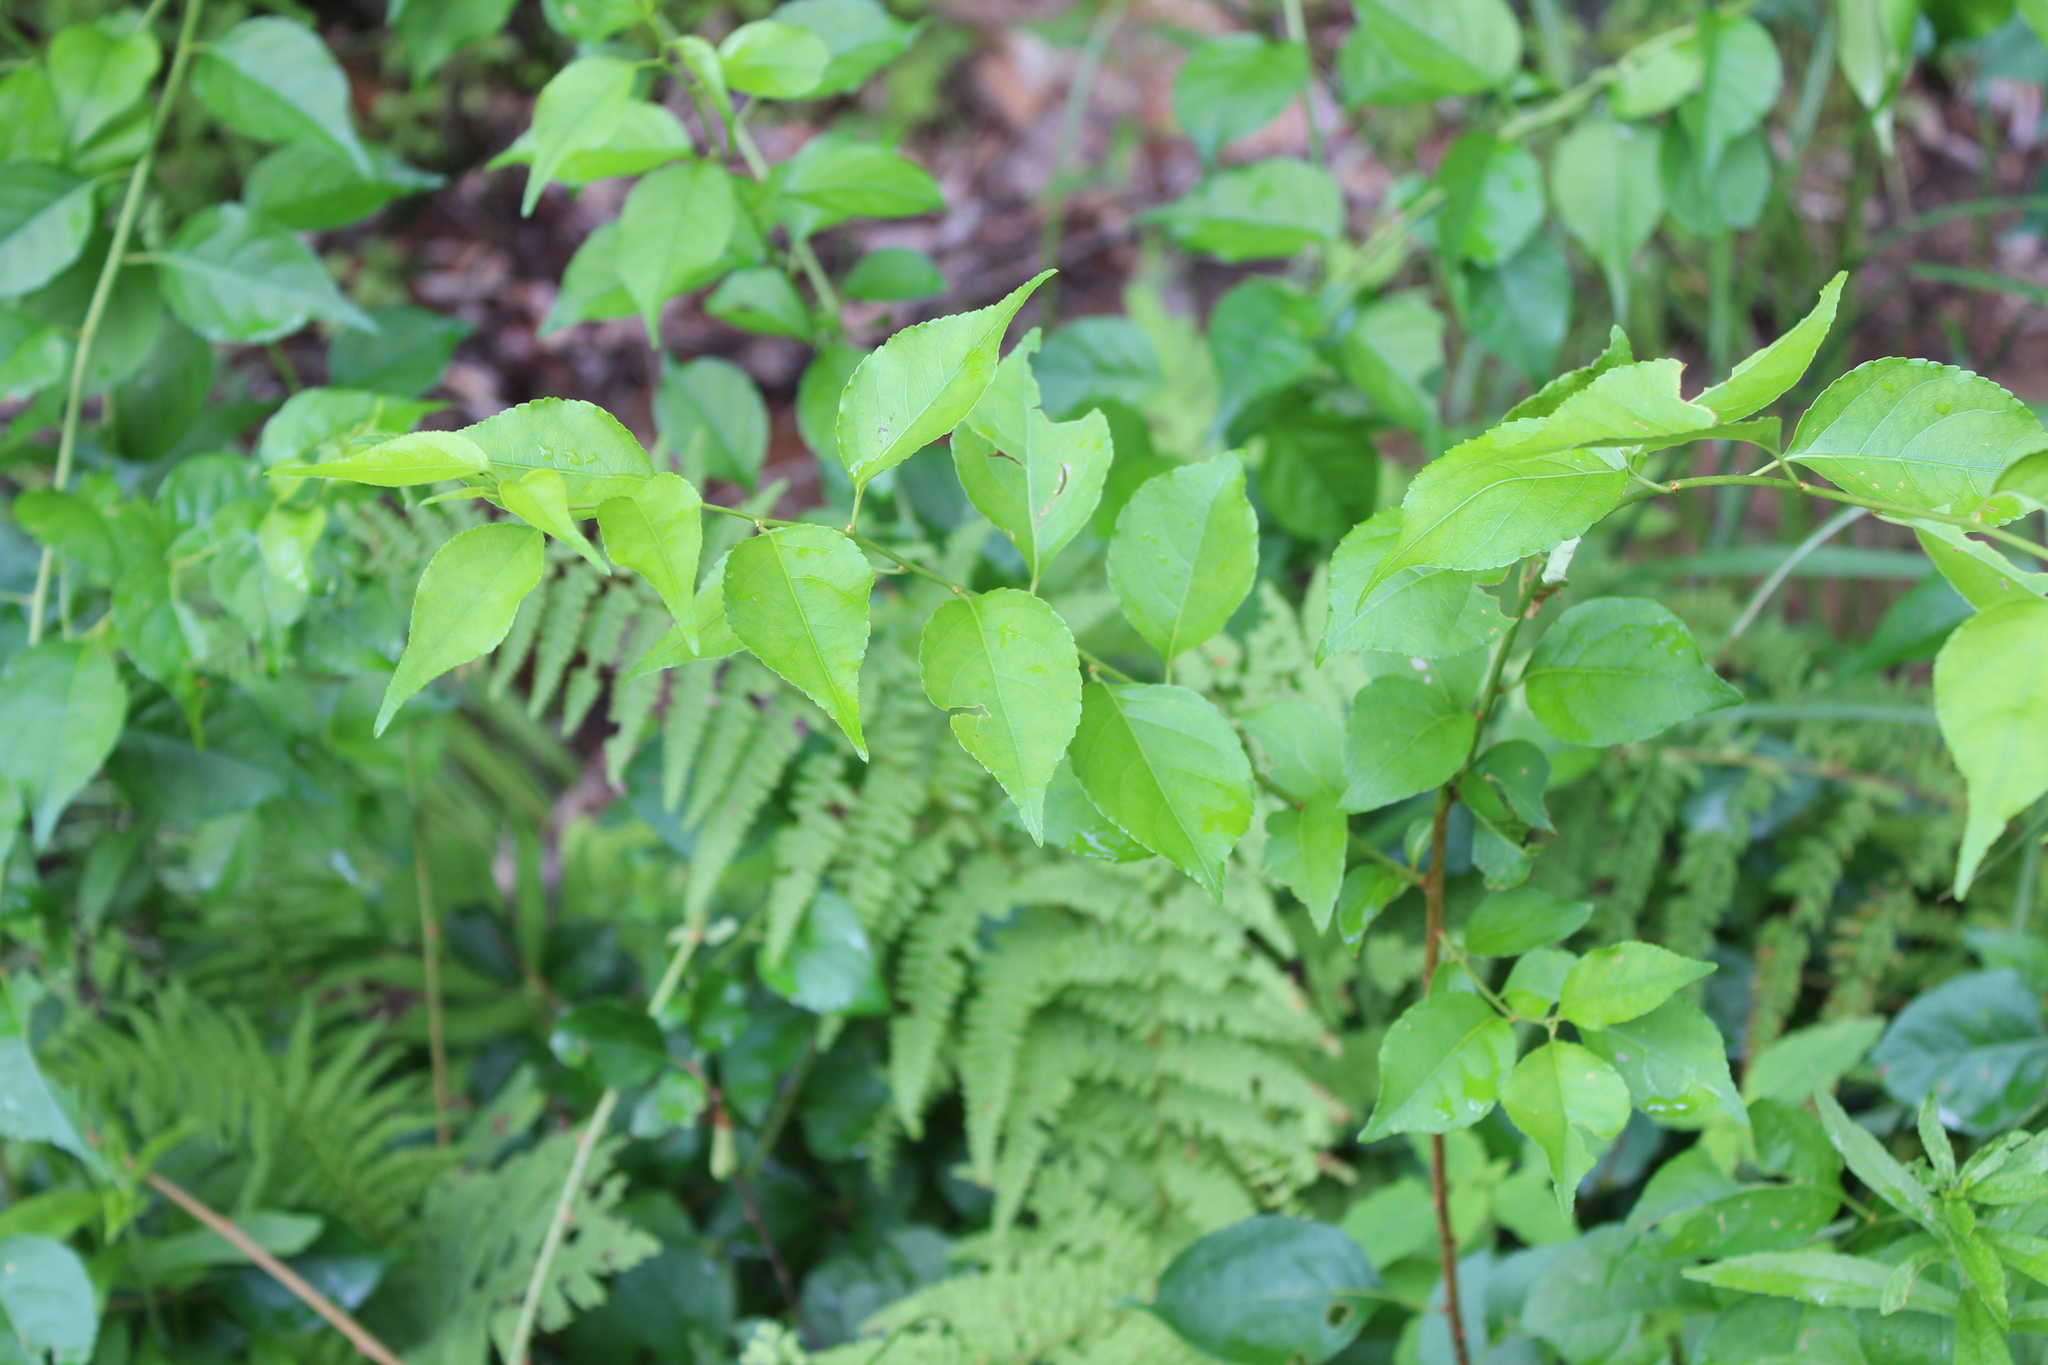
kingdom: Plantae
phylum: Tracheophyta
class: Magnoliopsida
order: Celastrales
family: Celastraceae
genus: Celastrus
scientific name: Celastrus orbiculatus
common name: Oriental bittersweet
